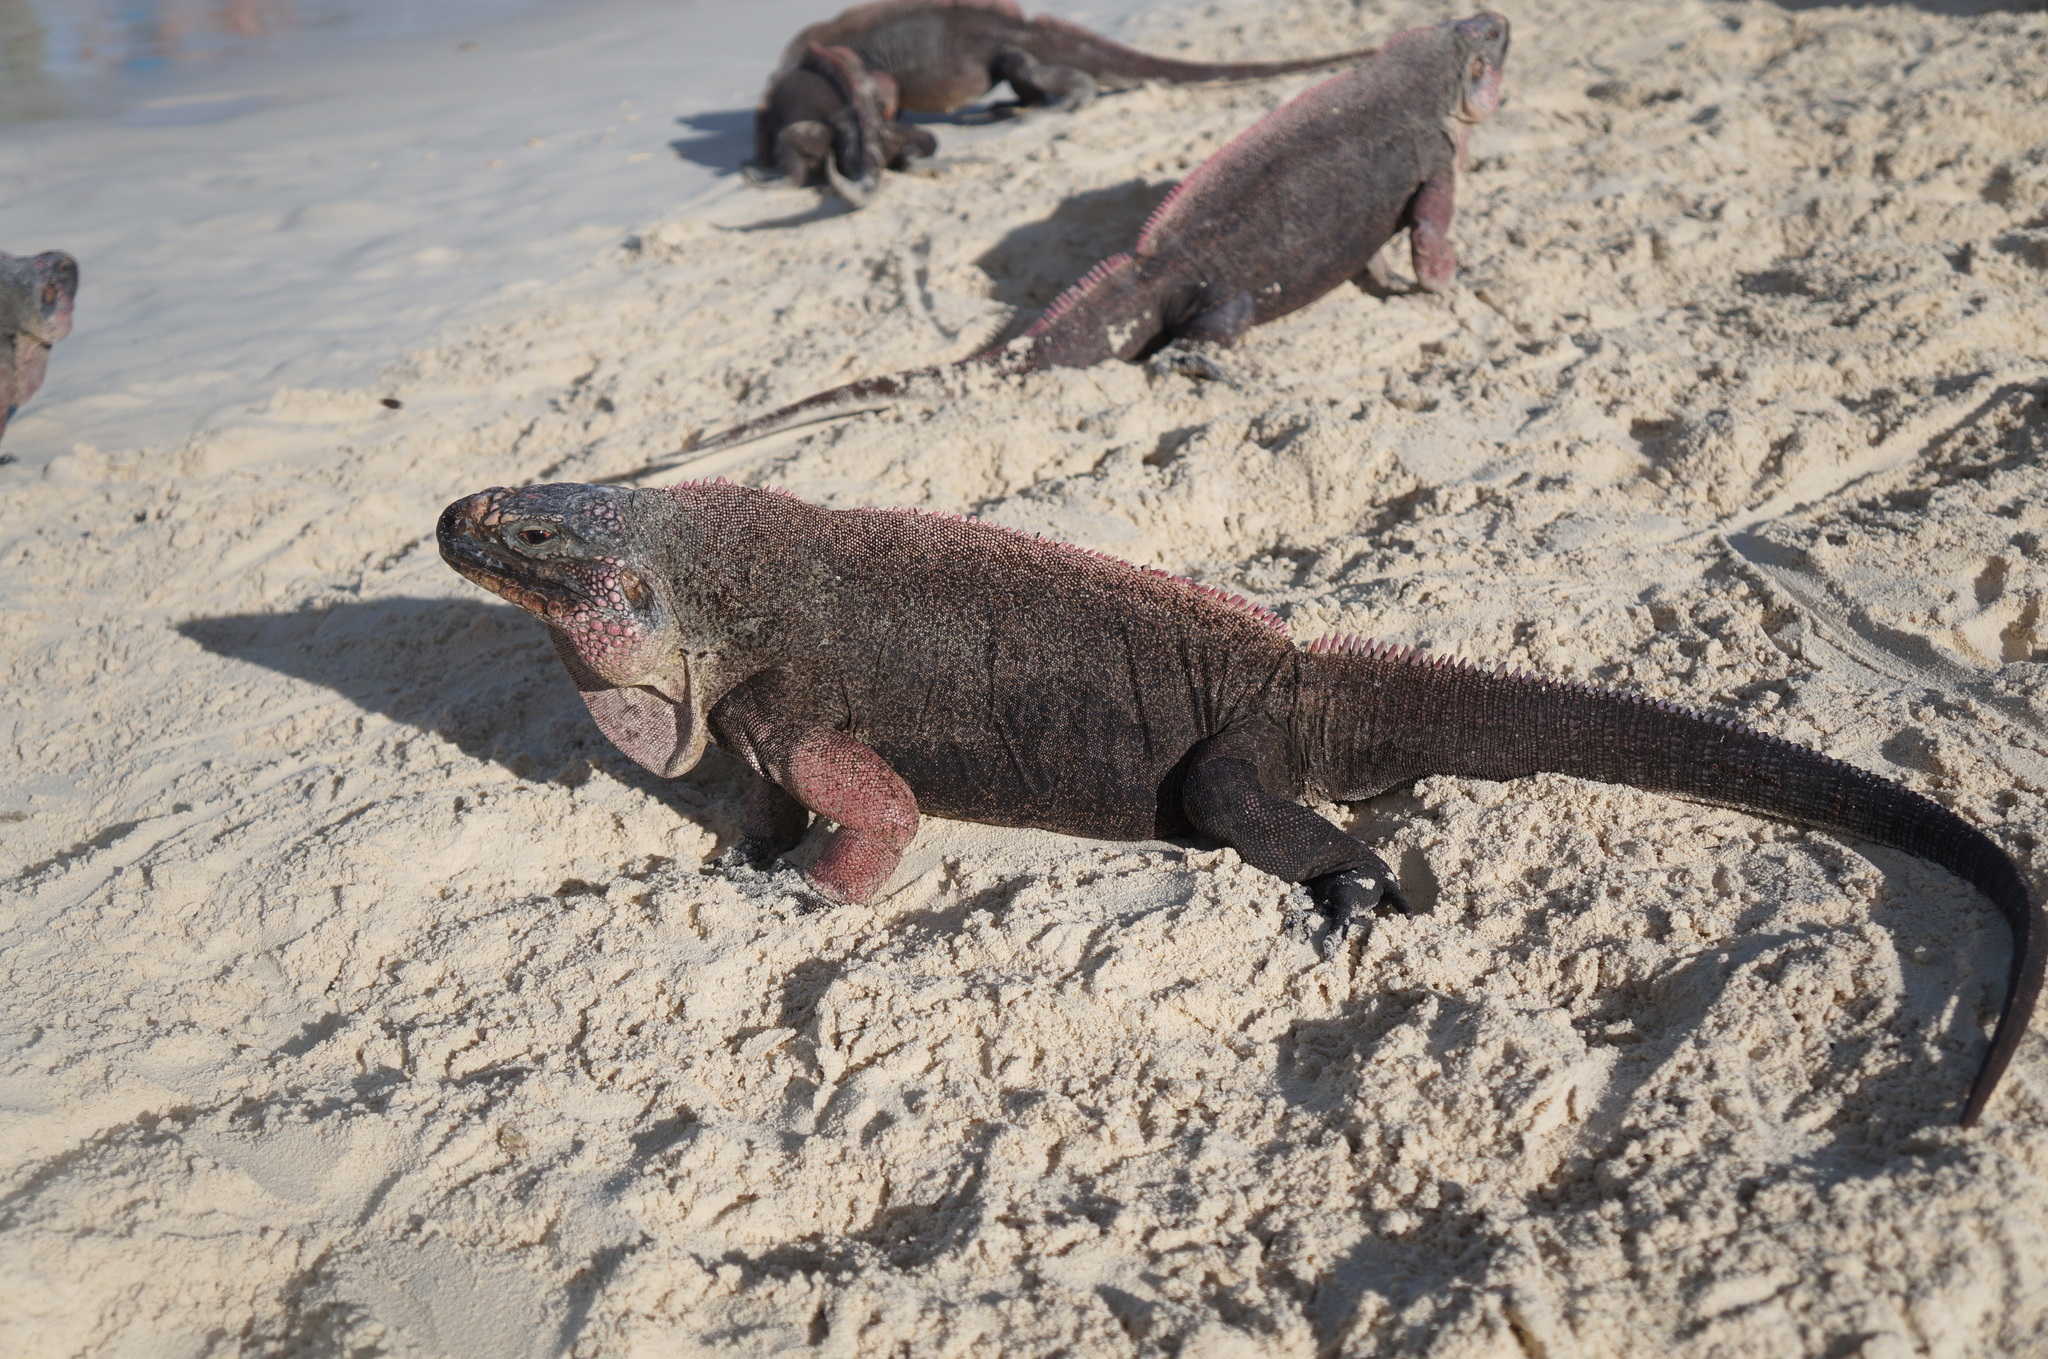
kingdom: Animalia
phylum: Chordata
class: Squamata
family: Iguanidae
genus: Cyclura
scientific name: Cyclura cychlura
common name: Northern bahamian rock iguana
